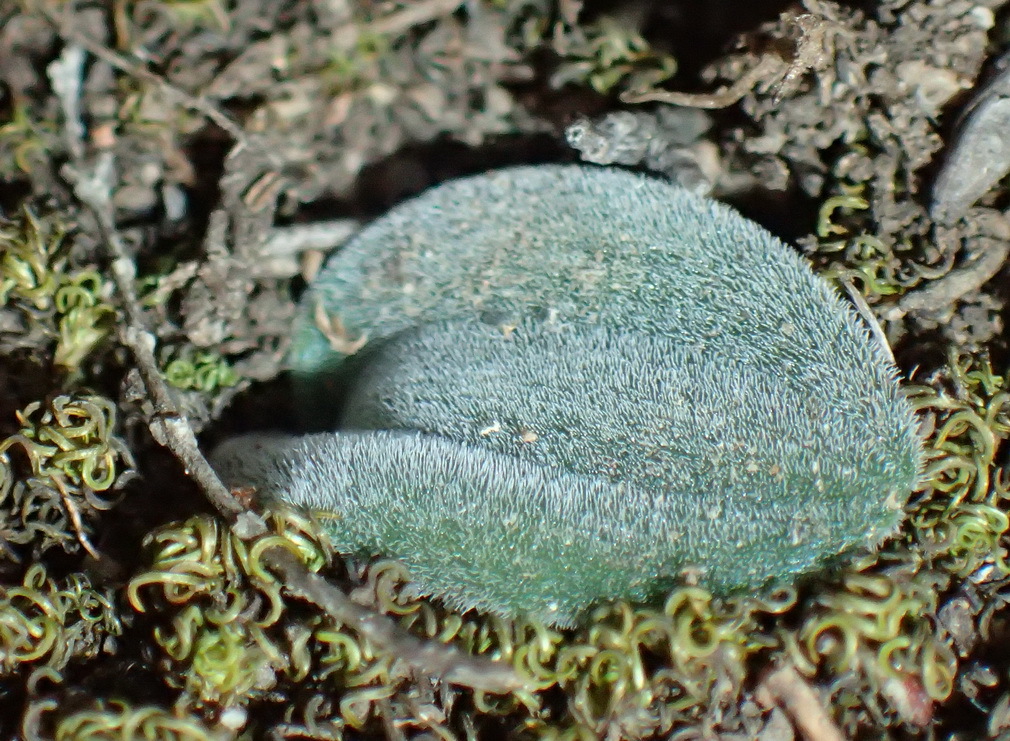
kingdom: Plantae
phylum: Tracheophyta
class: Liliopsida
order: Asparagales
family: Asparagaceae
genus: Drimia
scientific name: Drimia platyphylla
